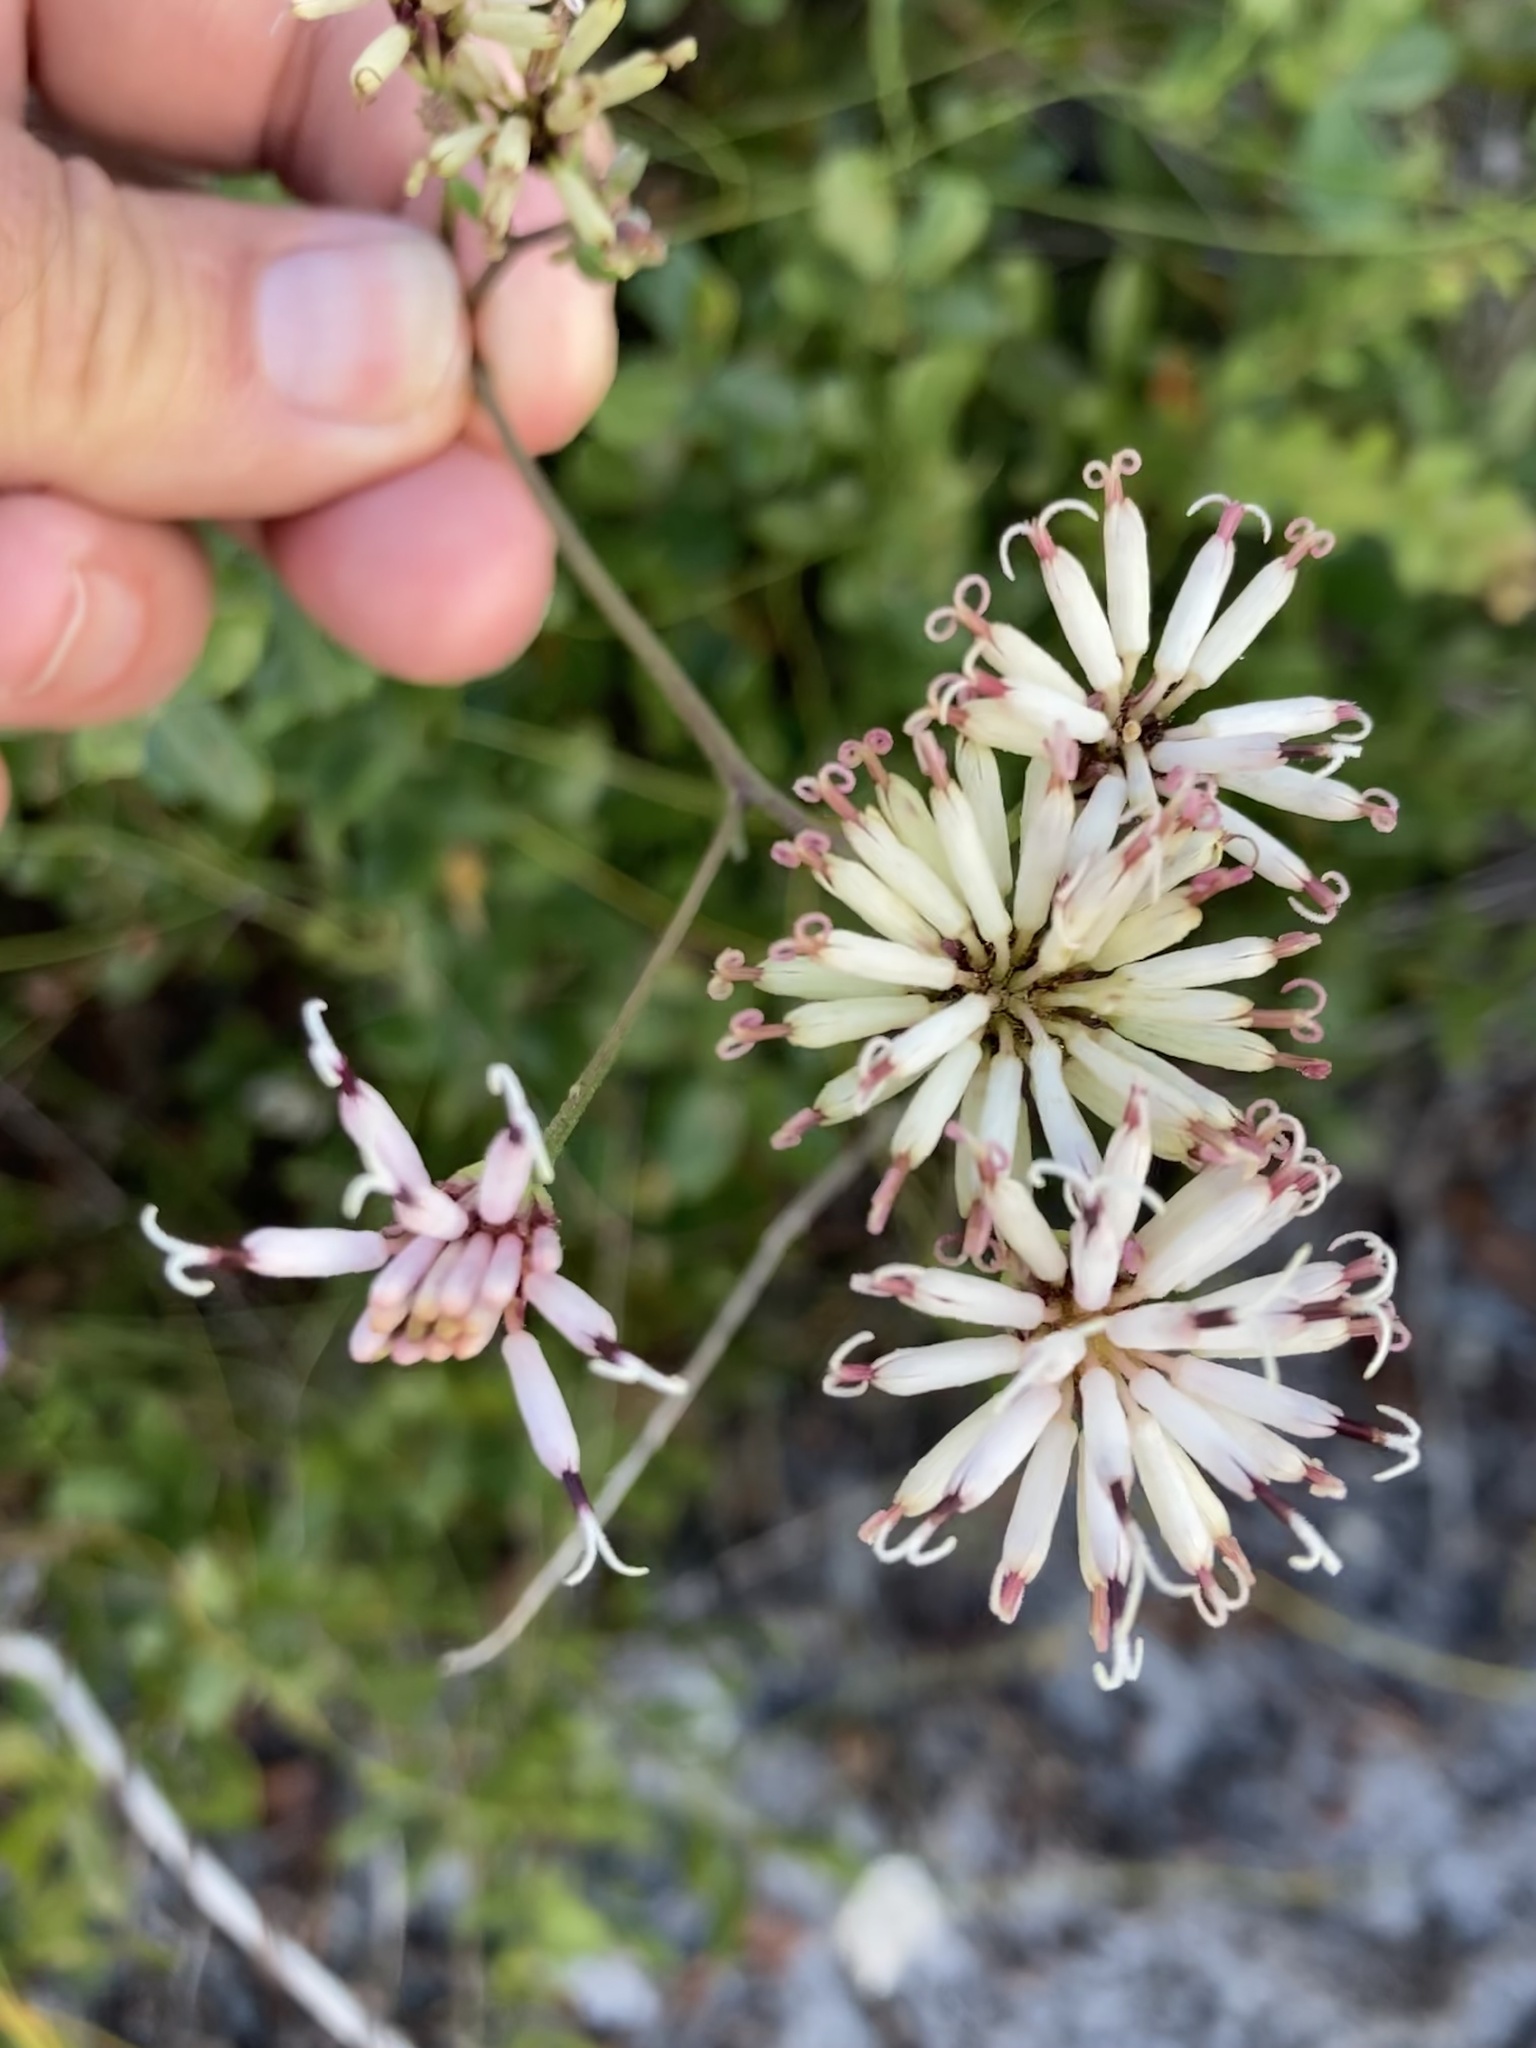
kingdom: Plantae
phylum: Tracheophyta
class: Magnoliopsida
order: Asterales
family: Asteraceae
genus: Palafoxia
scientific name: Palafoxia feayi
